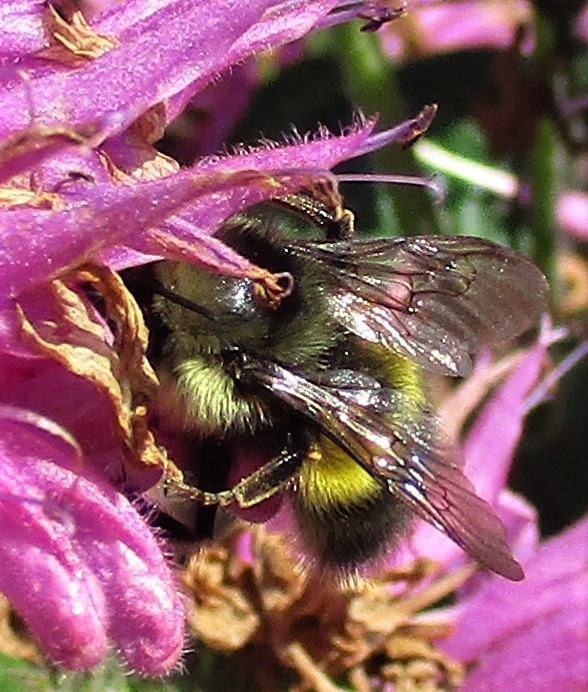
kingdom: Animalia
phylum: Arthropoda
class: Insecta
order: Hymenoptera
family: Apidae
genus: Bombus
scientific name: Bombus flavifrons
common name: Yellow head bumble bee
